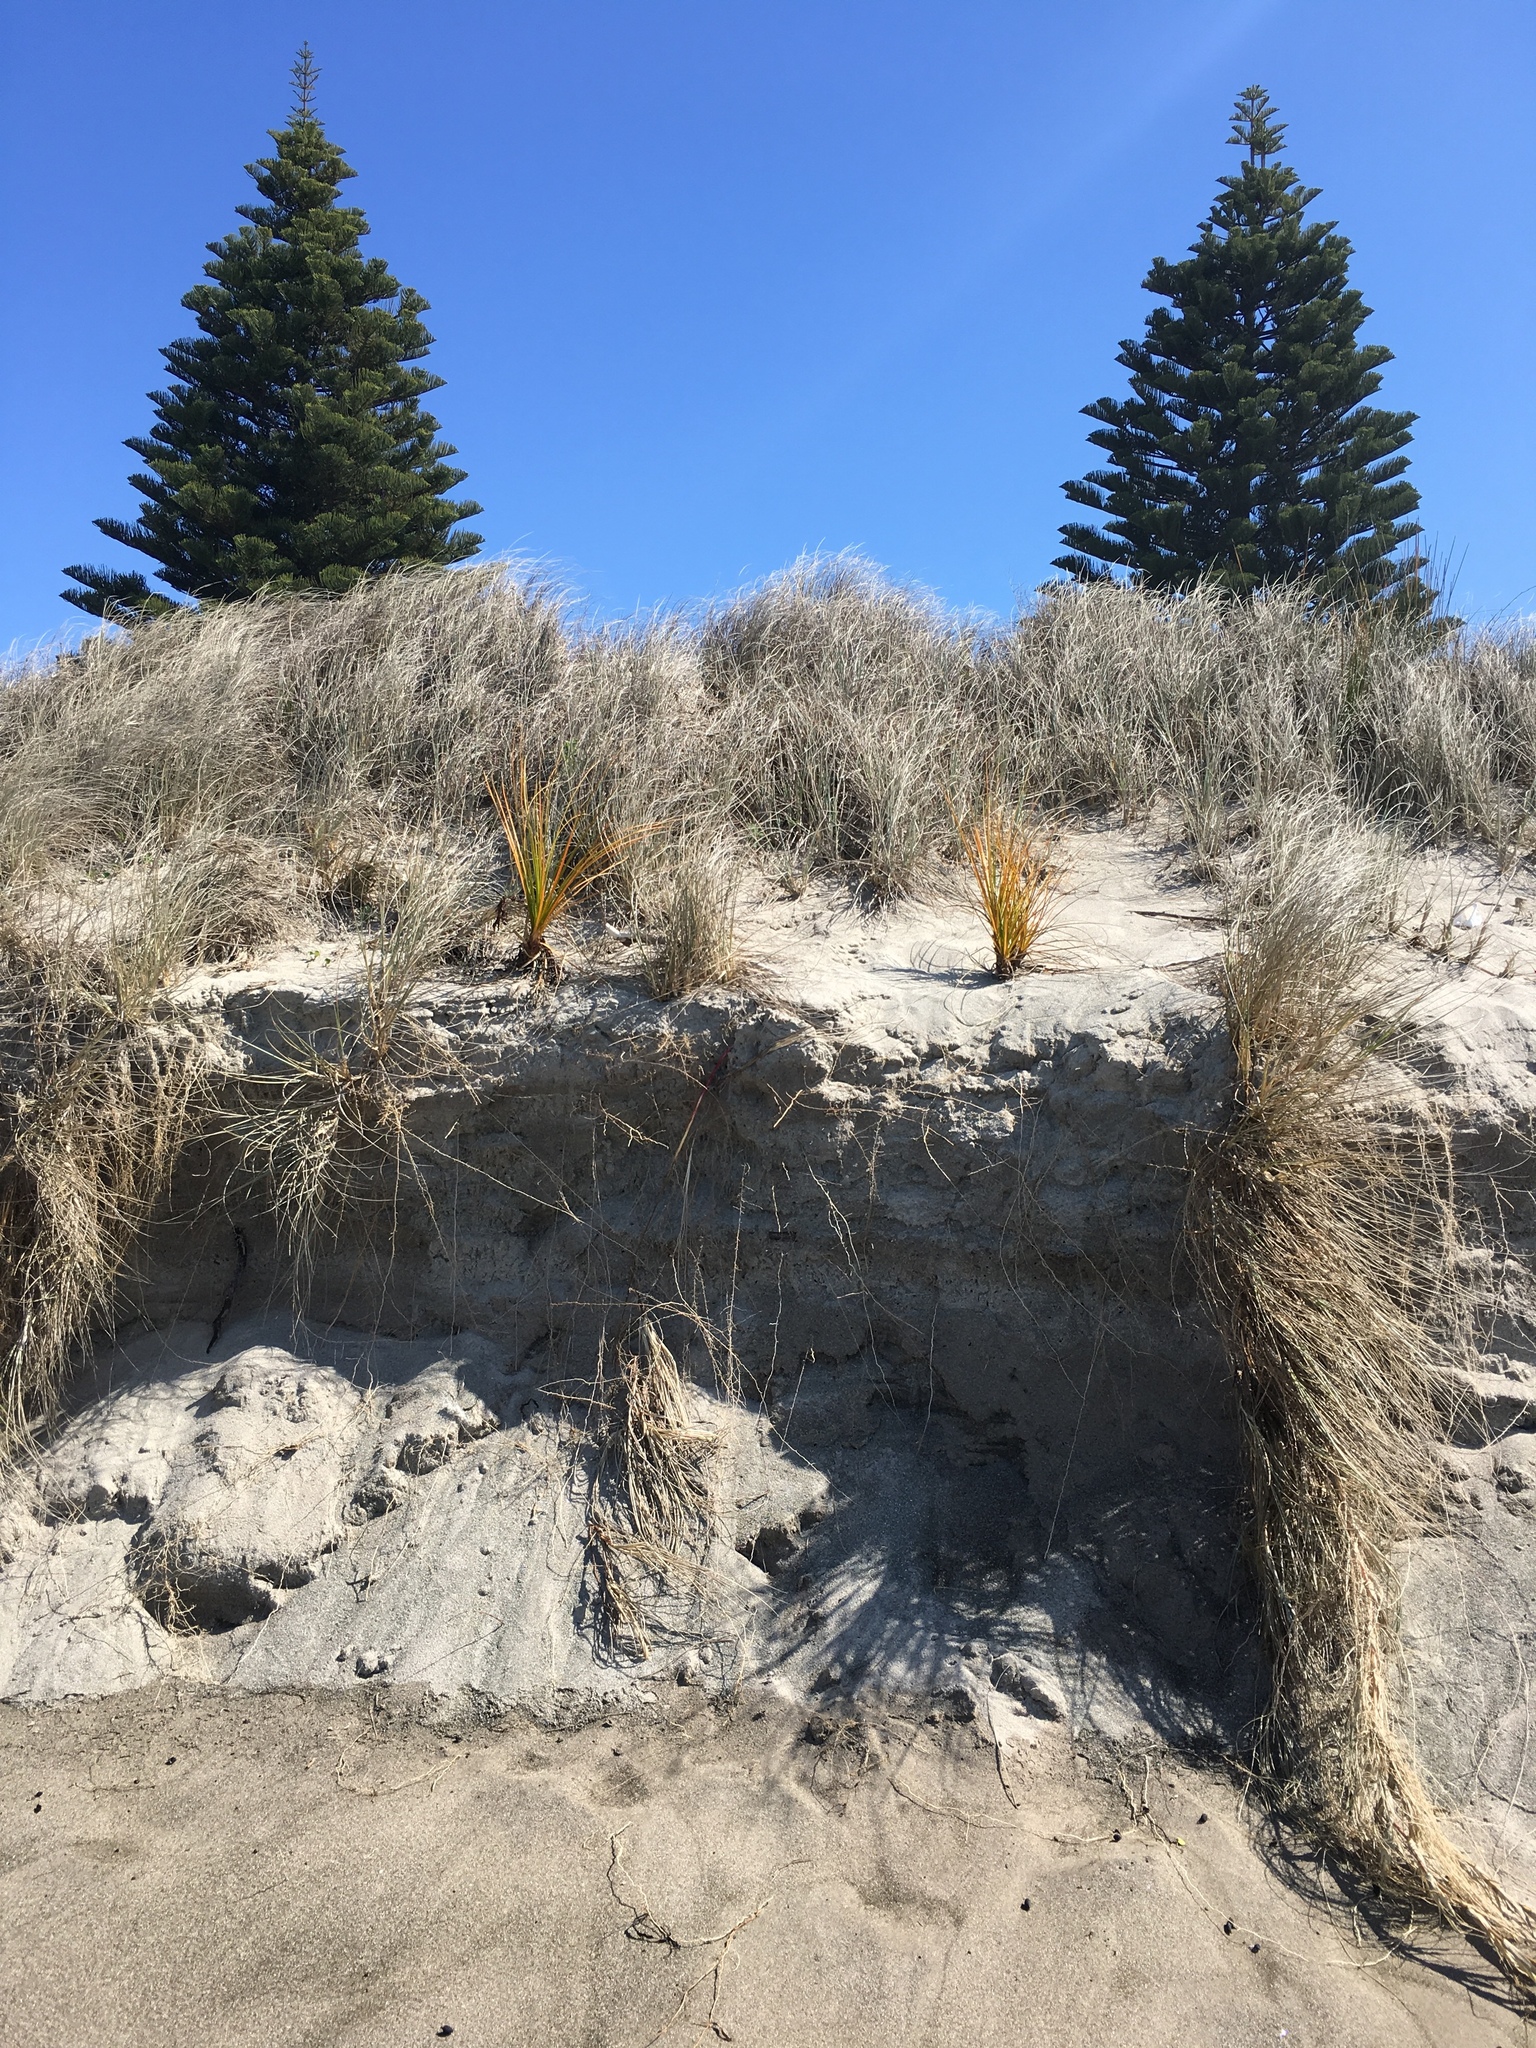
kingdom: Plantae
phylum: Tracheophyta
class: Liliopsida
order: Poales
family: Cyperaceae
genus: Ficinia
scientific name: Ficinia spiralis
